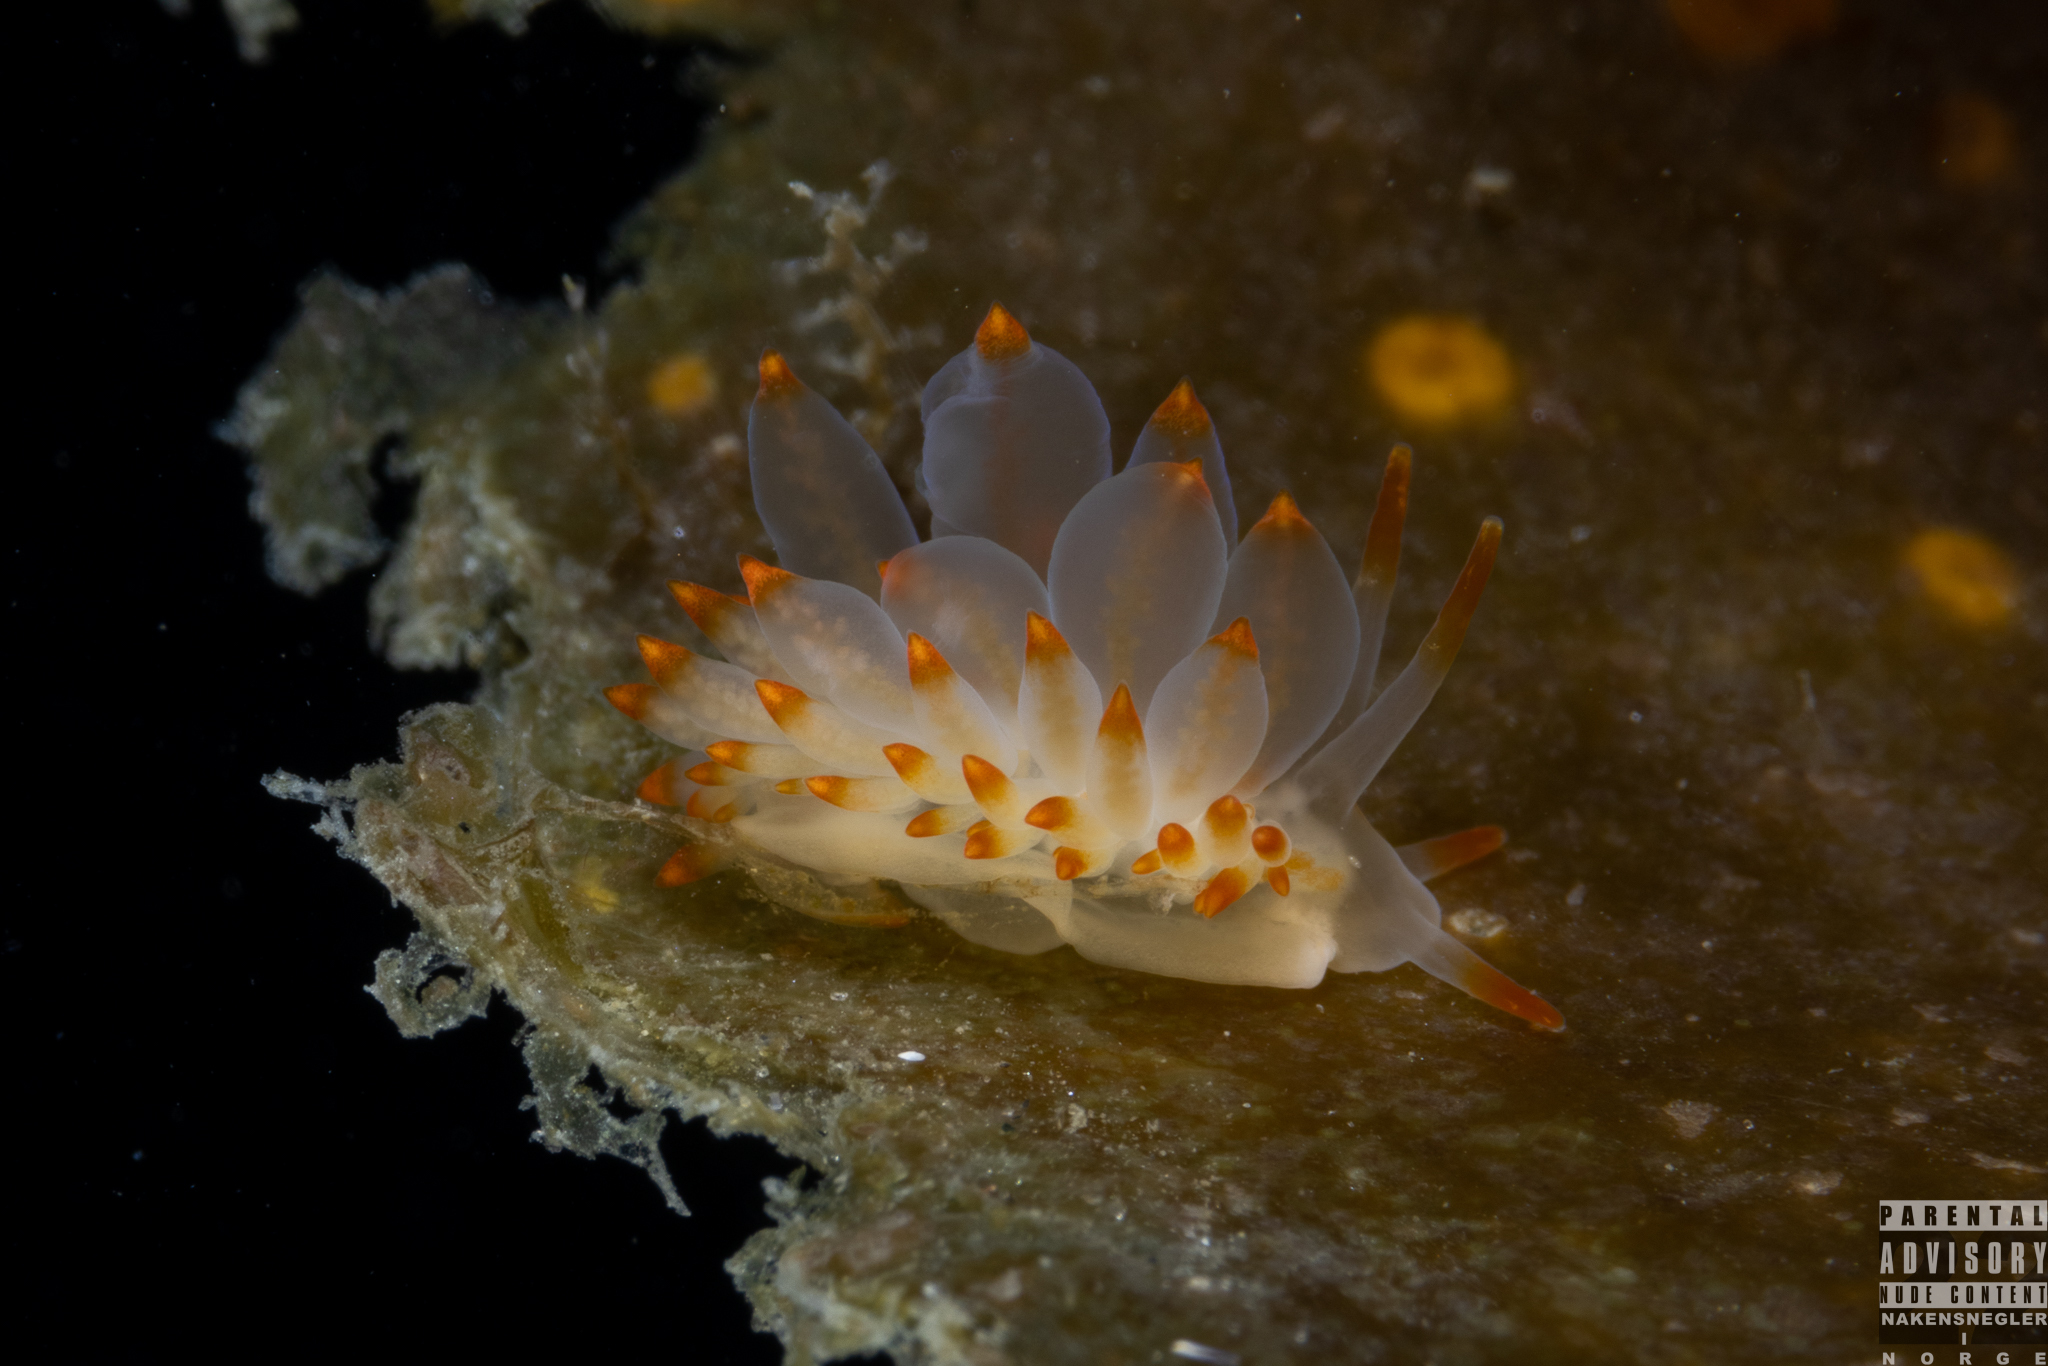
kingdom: Animalia
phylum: Mollusca
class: Gastropoda
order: Nudibranchia
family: Eubranchidae
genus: Amphorina
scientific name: Amphorina farrani
